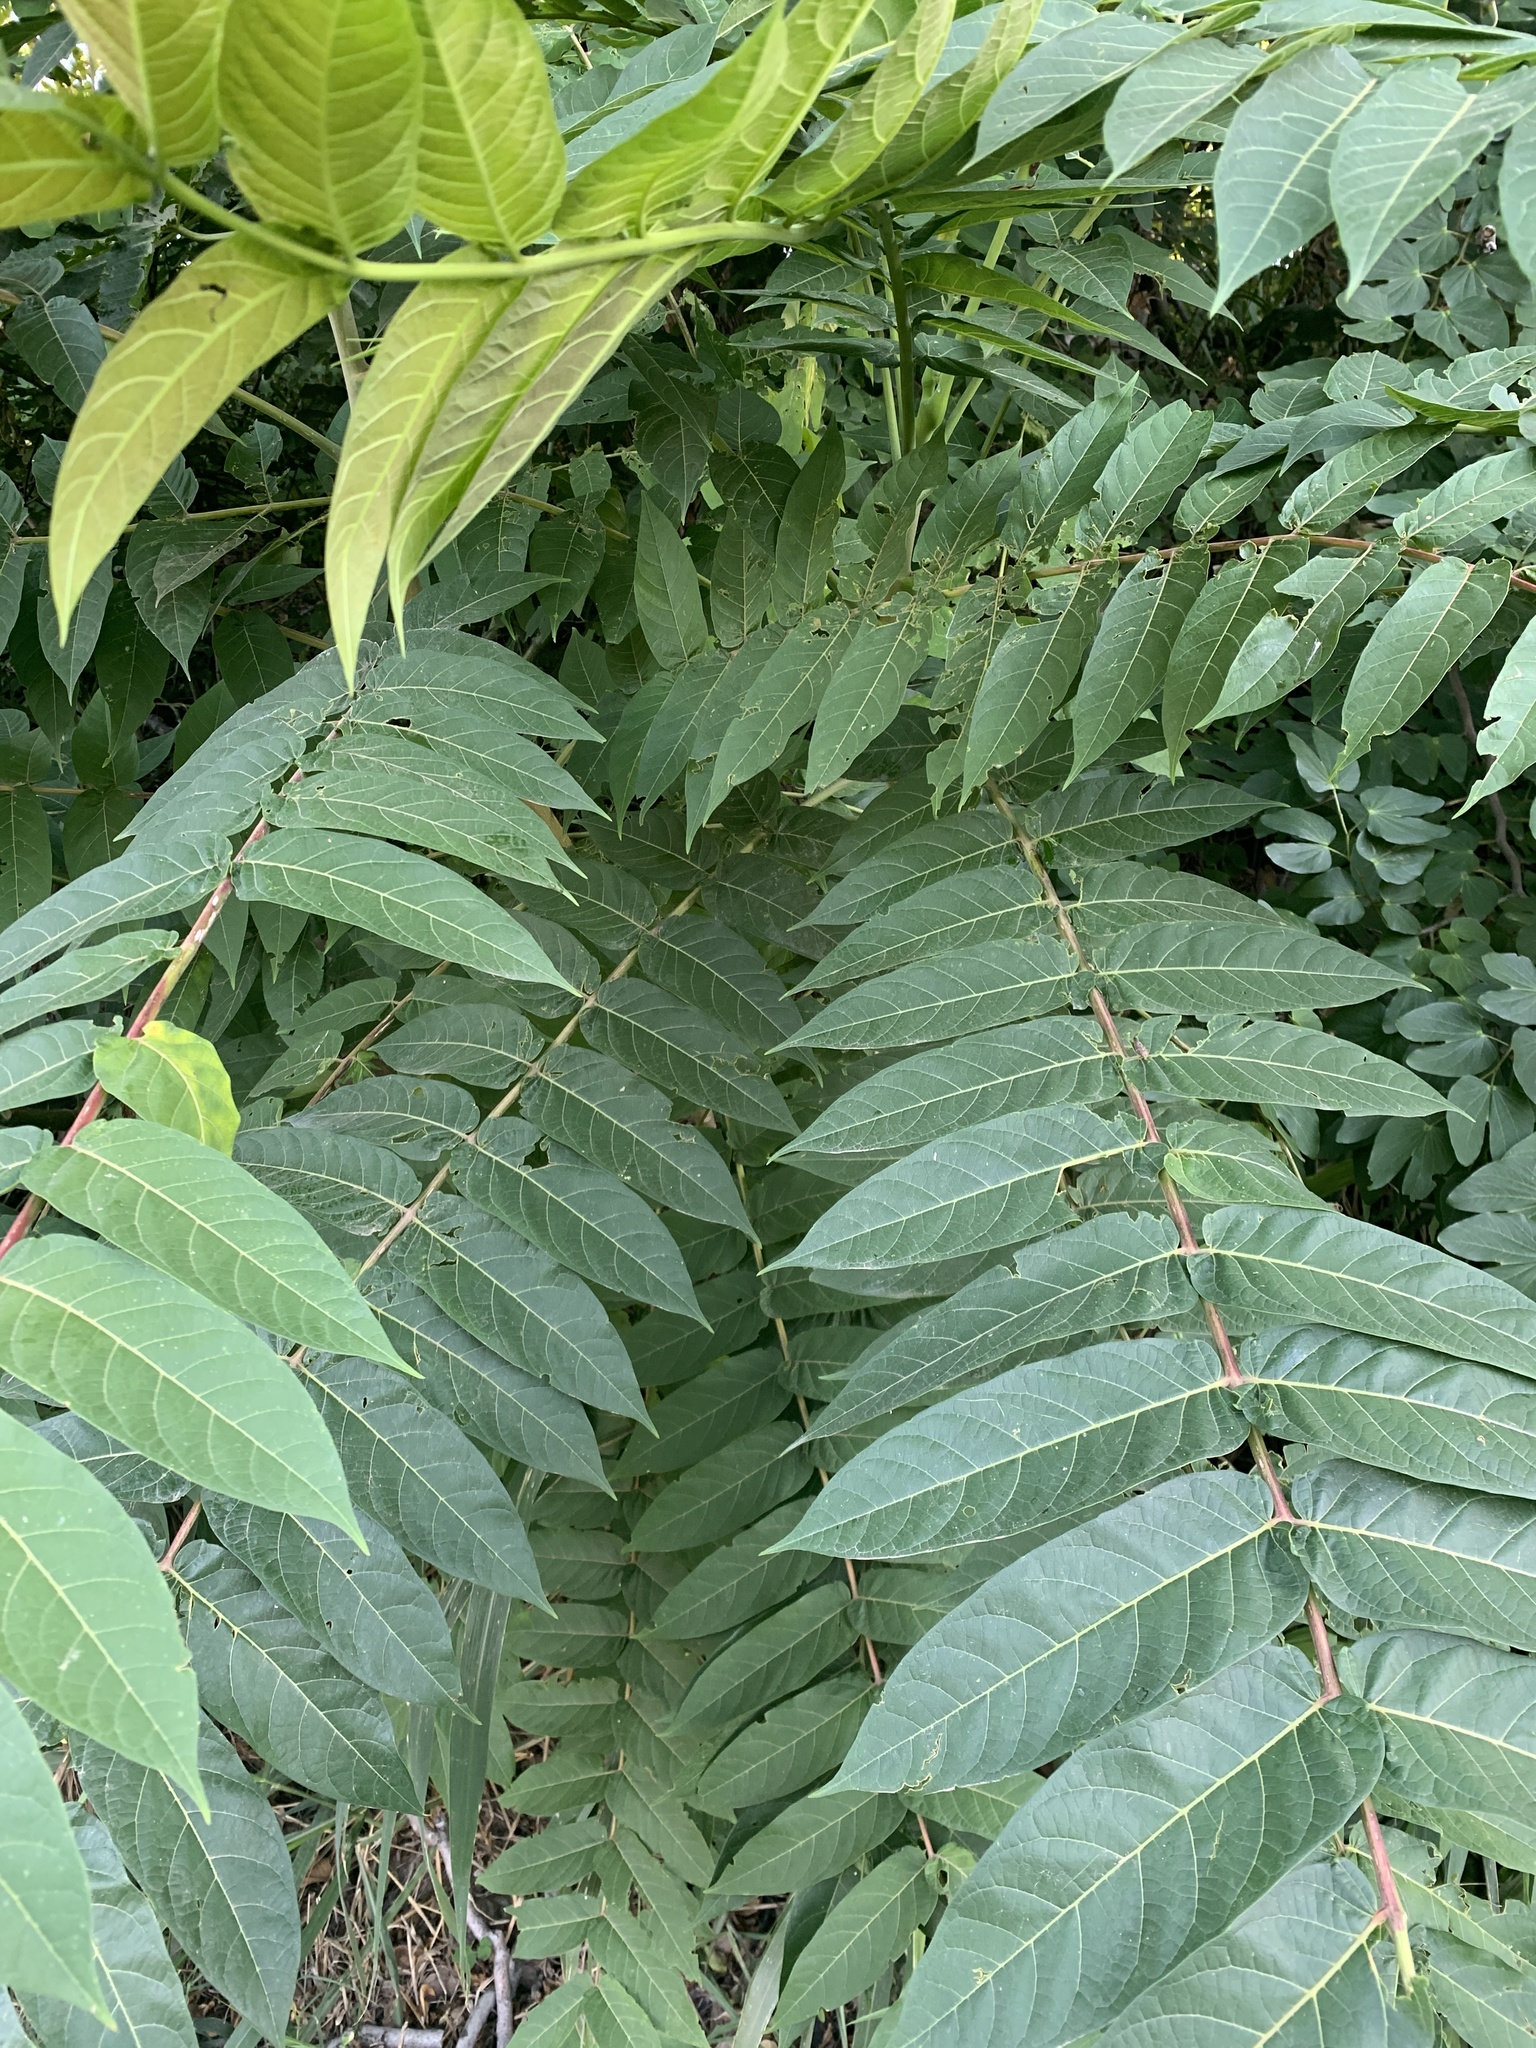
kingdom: Plantae
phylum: Tracheophyta
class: Magnoliopsida
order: Sapindales
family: Simaroubaceae
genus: Ailanthus
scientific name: Ailanthus altissima
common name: Tree-of-heaven
